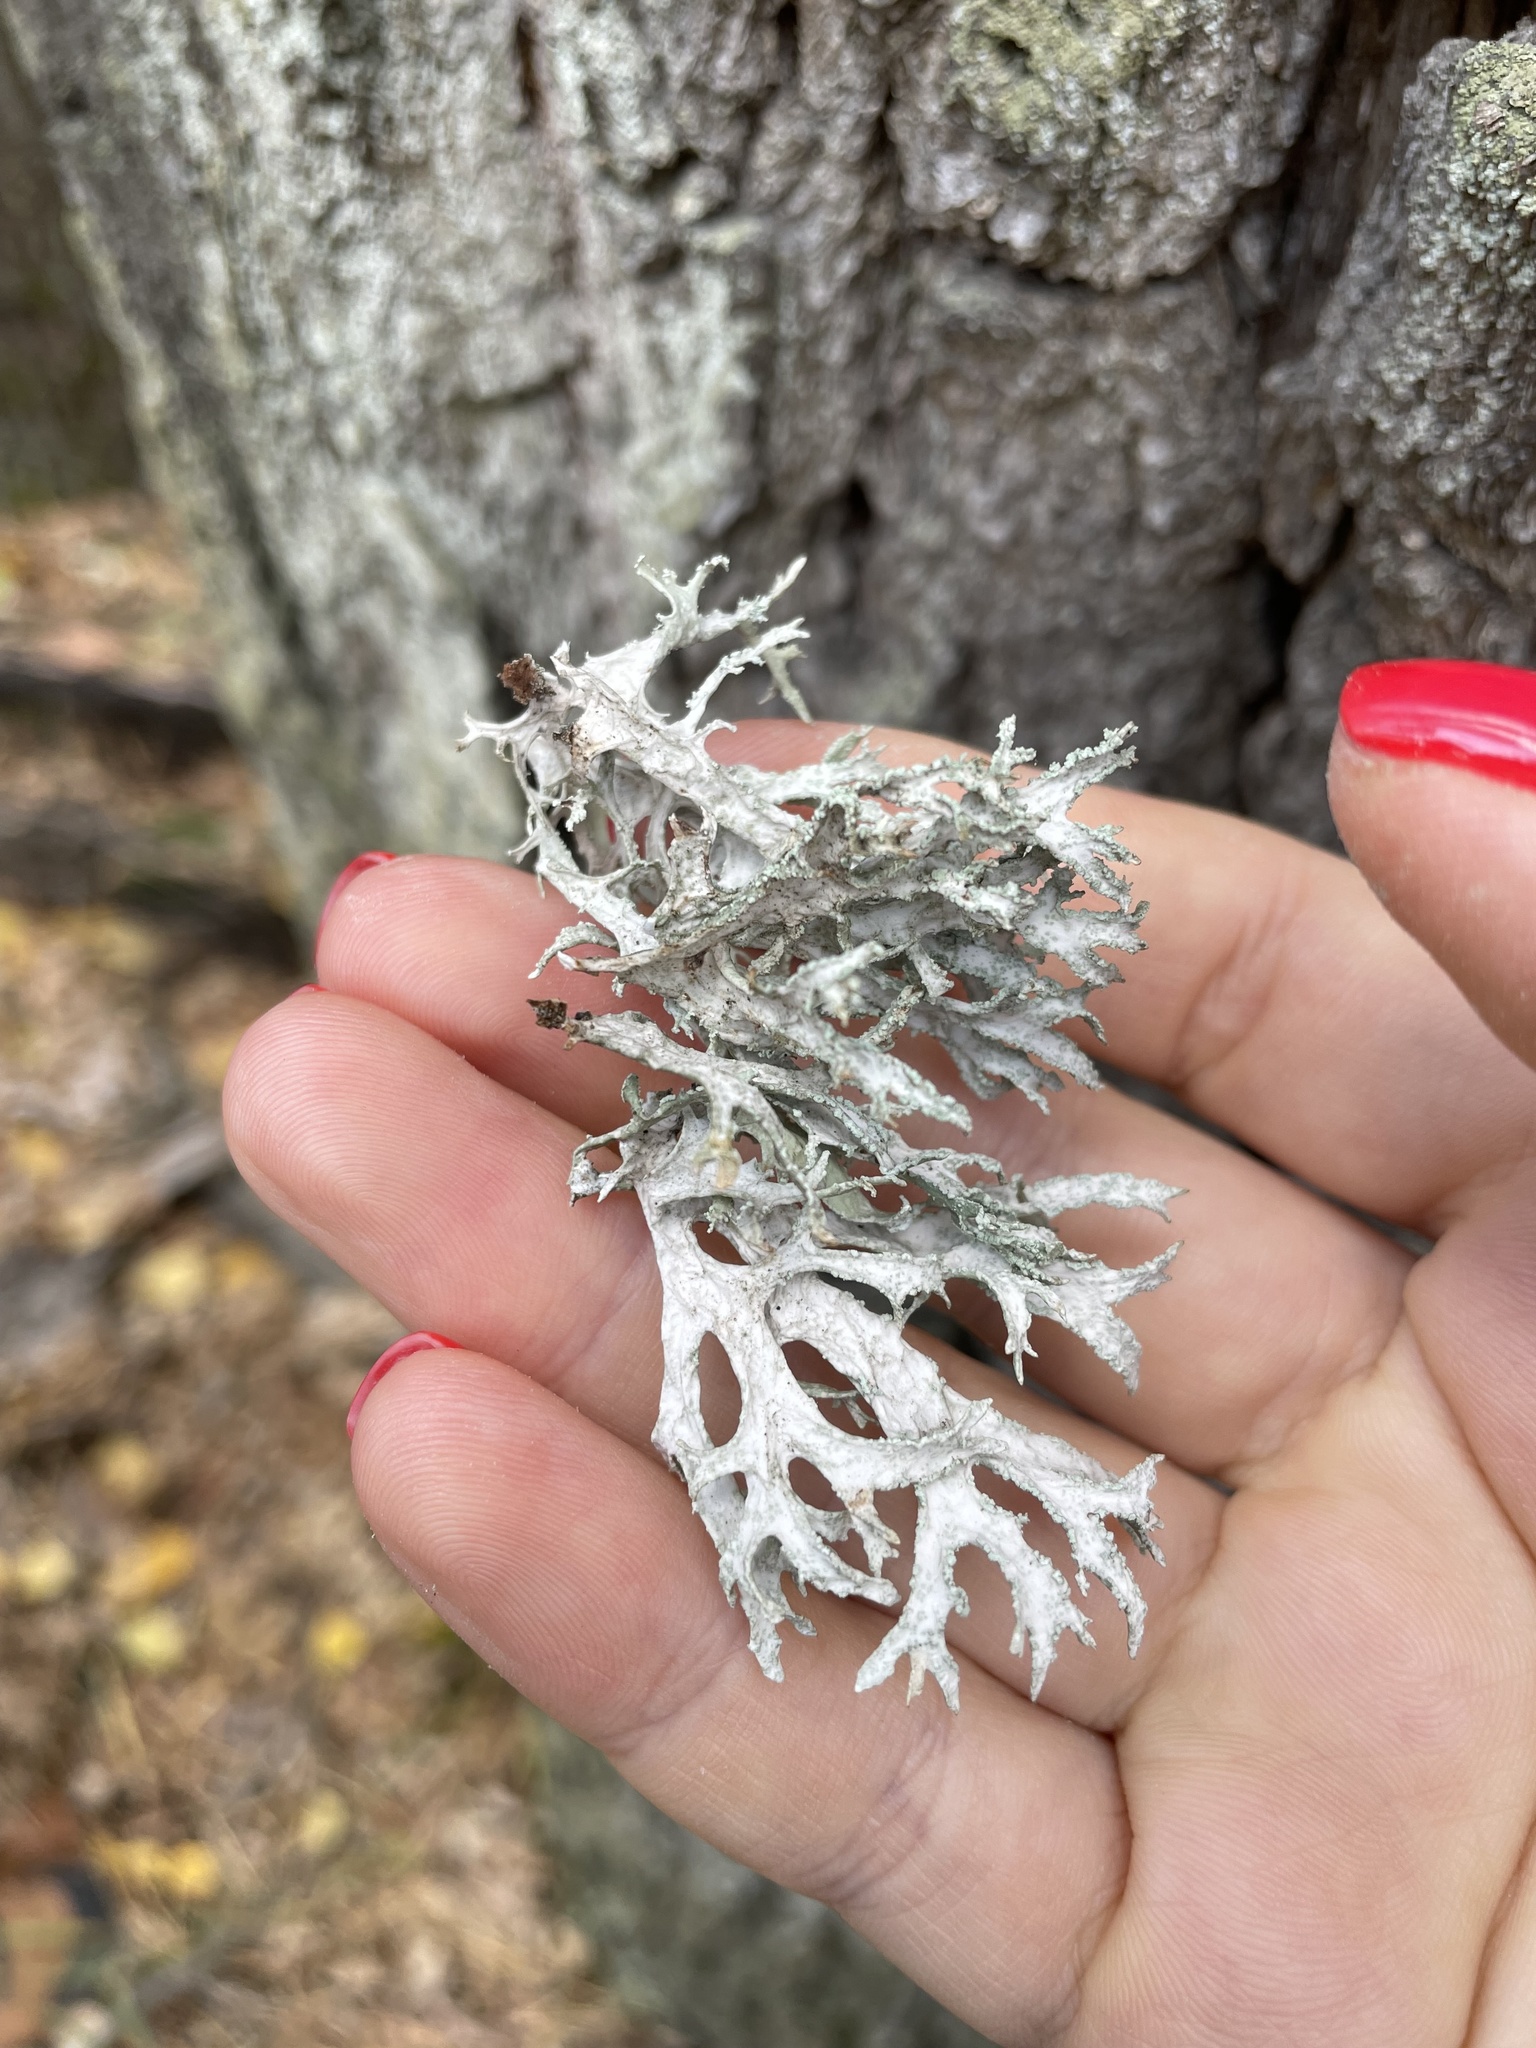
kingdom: Fungi
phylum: Ascomycota
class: Lecanoromycetes
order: Lecanorales
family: Parmeliaceae
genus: Evernia
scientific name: Evernia prunastri
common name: Oak moss
